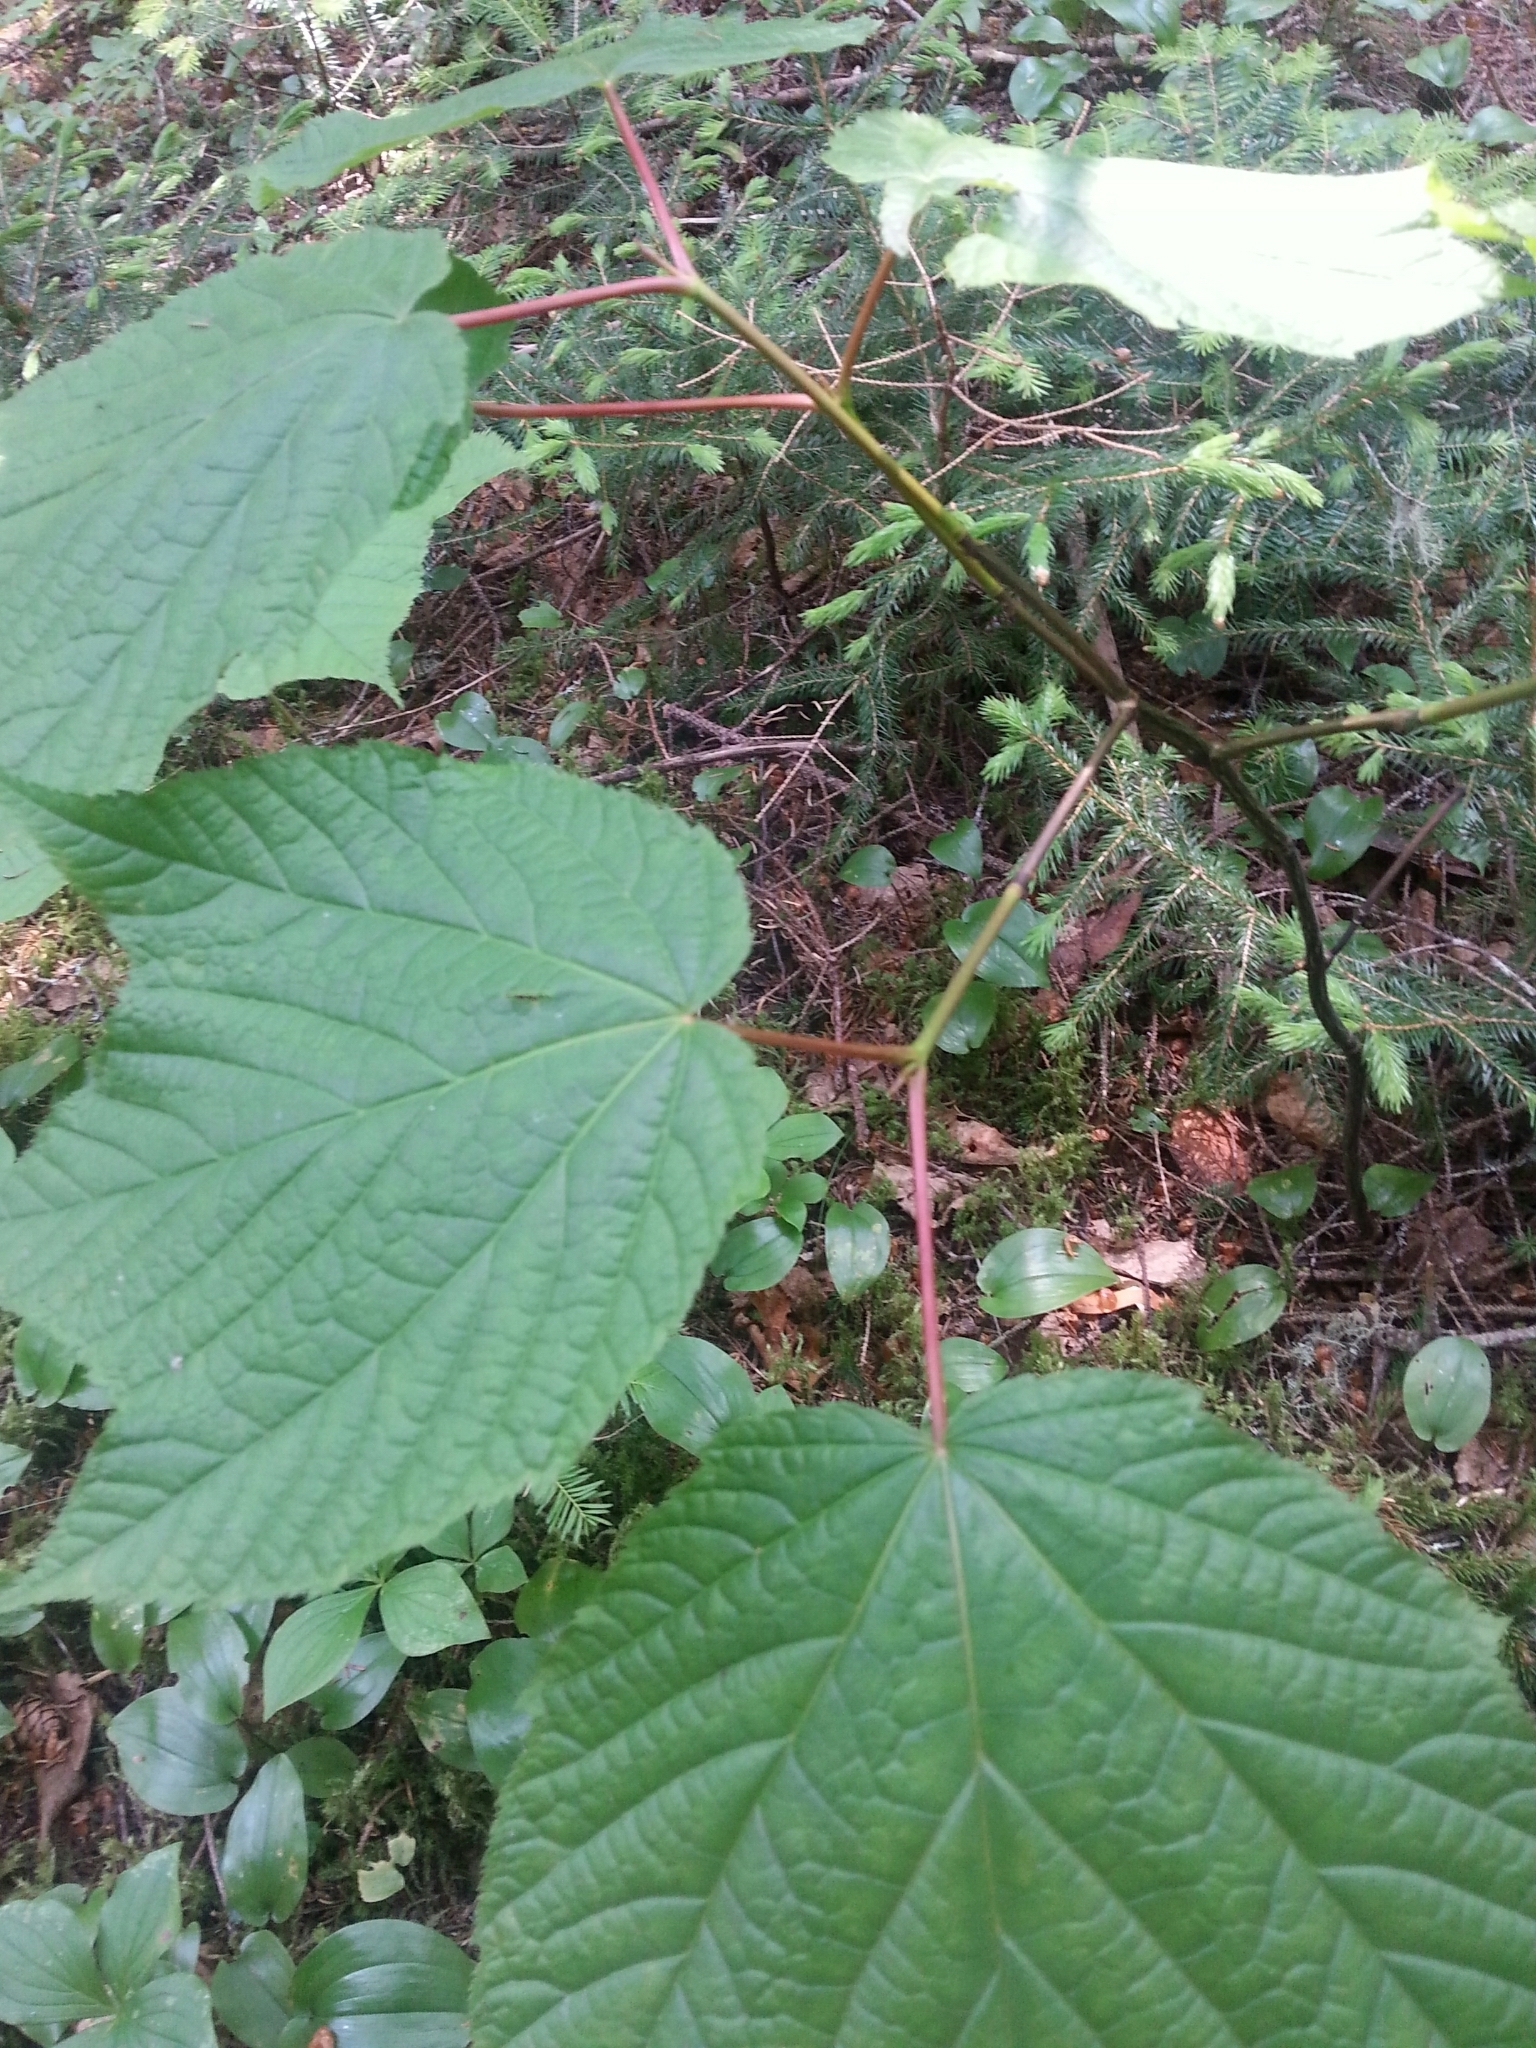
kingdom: Plantae
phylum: Tracheophyta
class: Magnoliopsida
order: Sapindales
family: Sapindaceae
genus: Acer
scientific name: Acer pensylvanicum
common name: Moosewood
